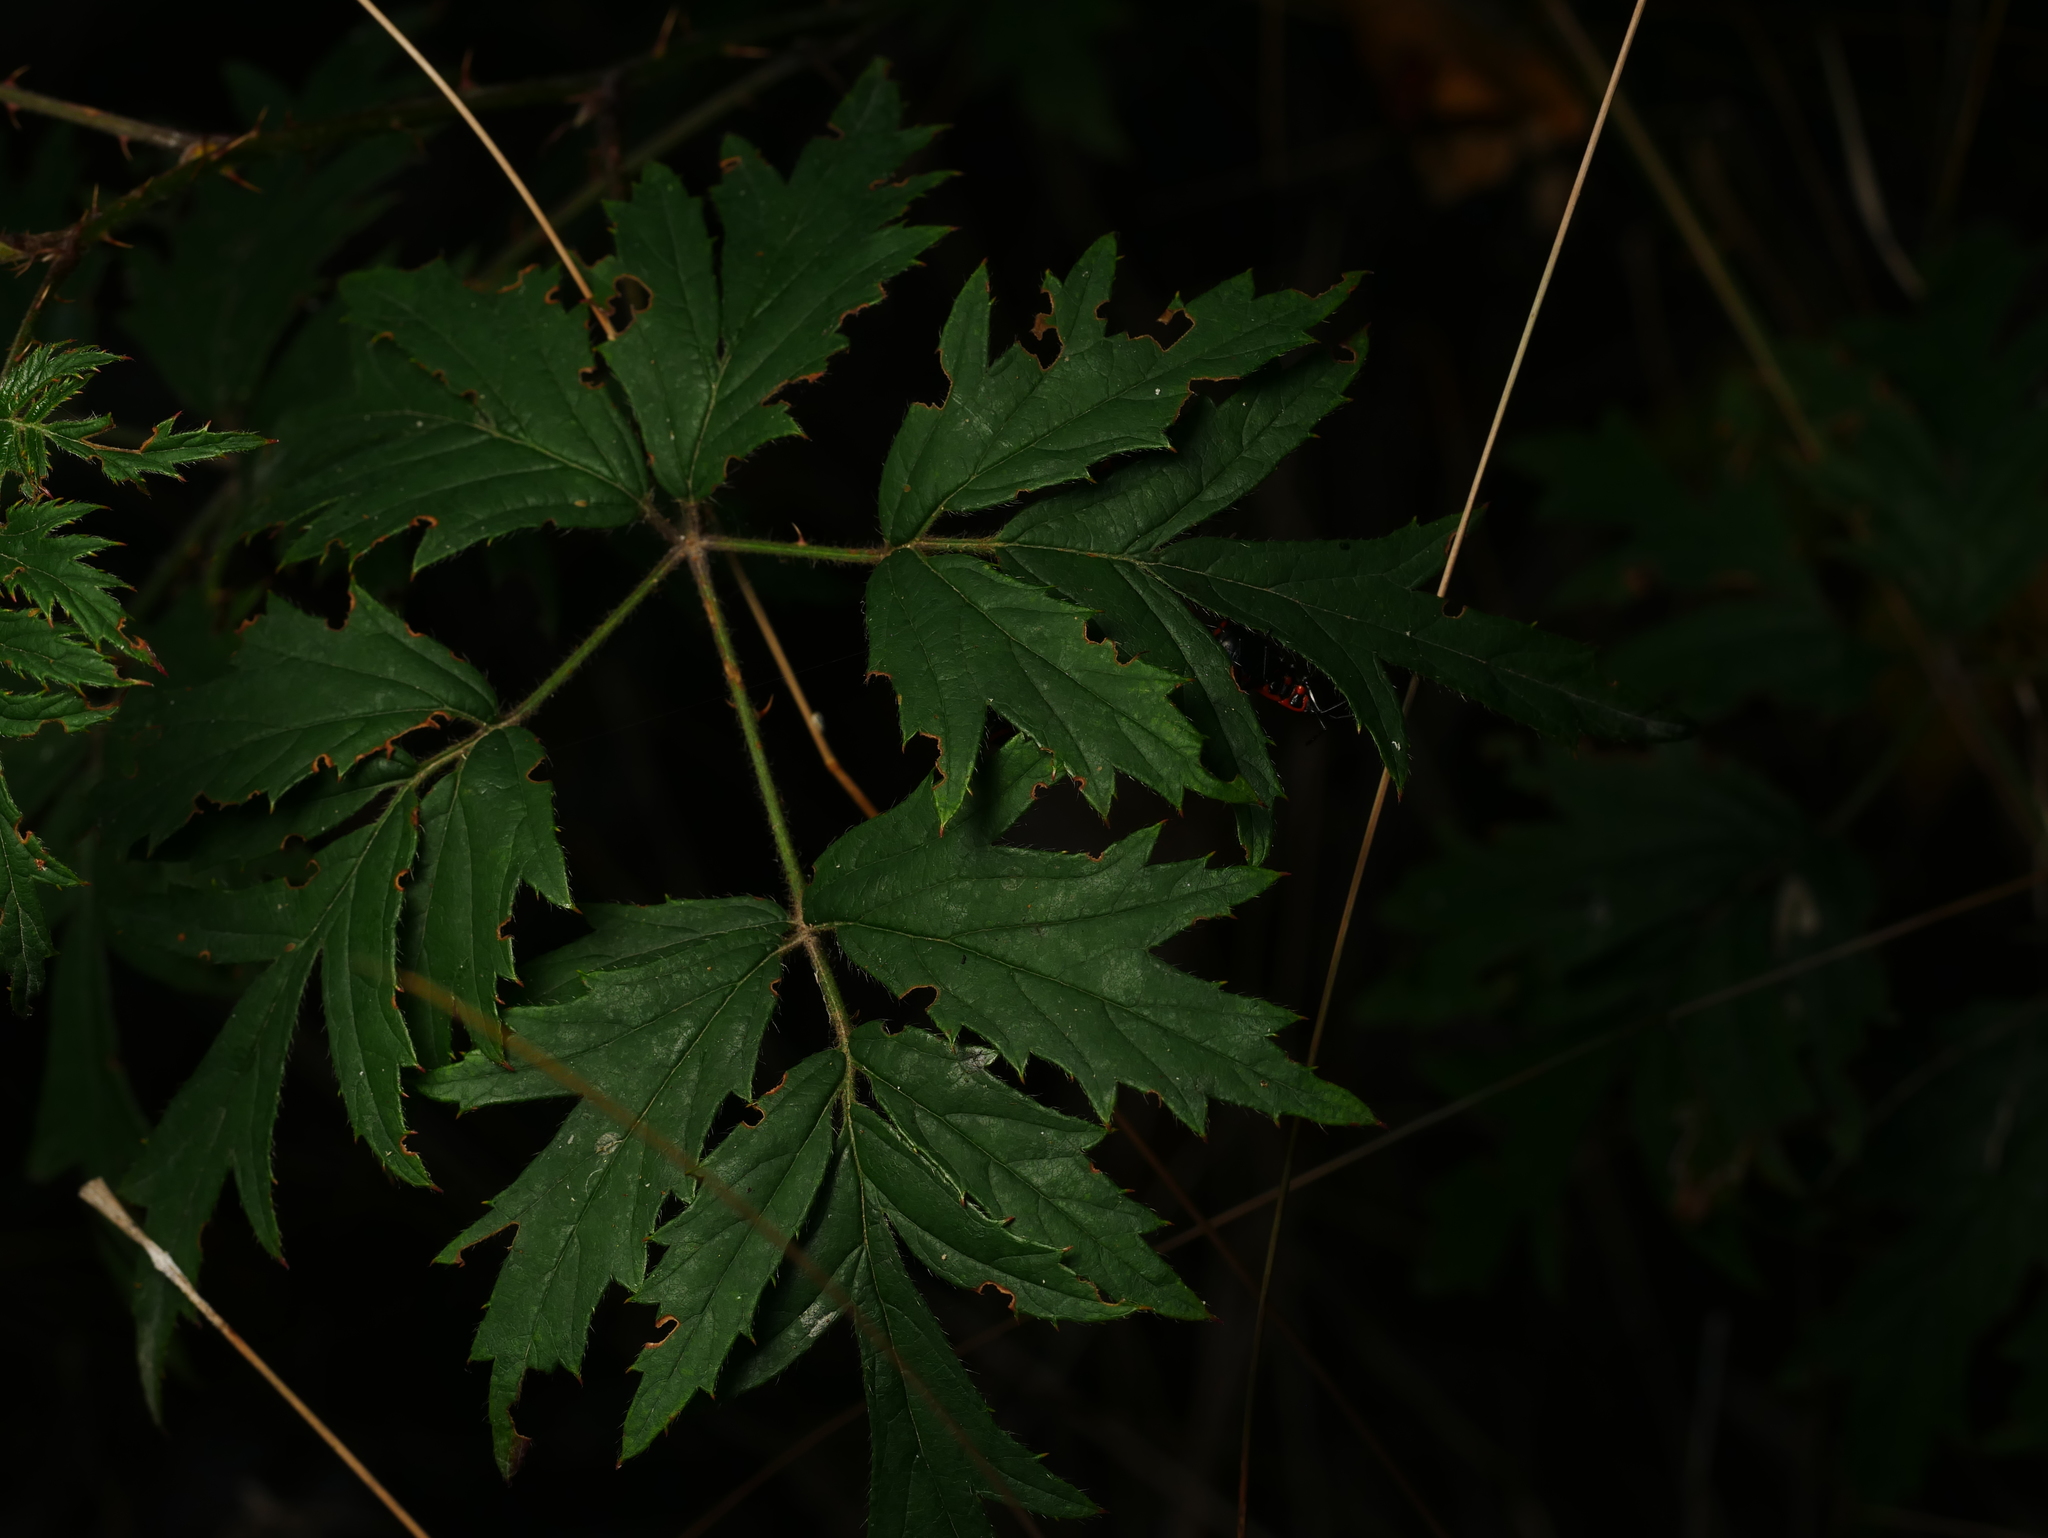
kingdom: Plantae
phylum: Tracheophyta
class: Magnoliopsida
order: Rosales
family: Rosaceae
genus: Rubus
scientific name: Rubus laciniatus
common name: Evergreen blackberry
